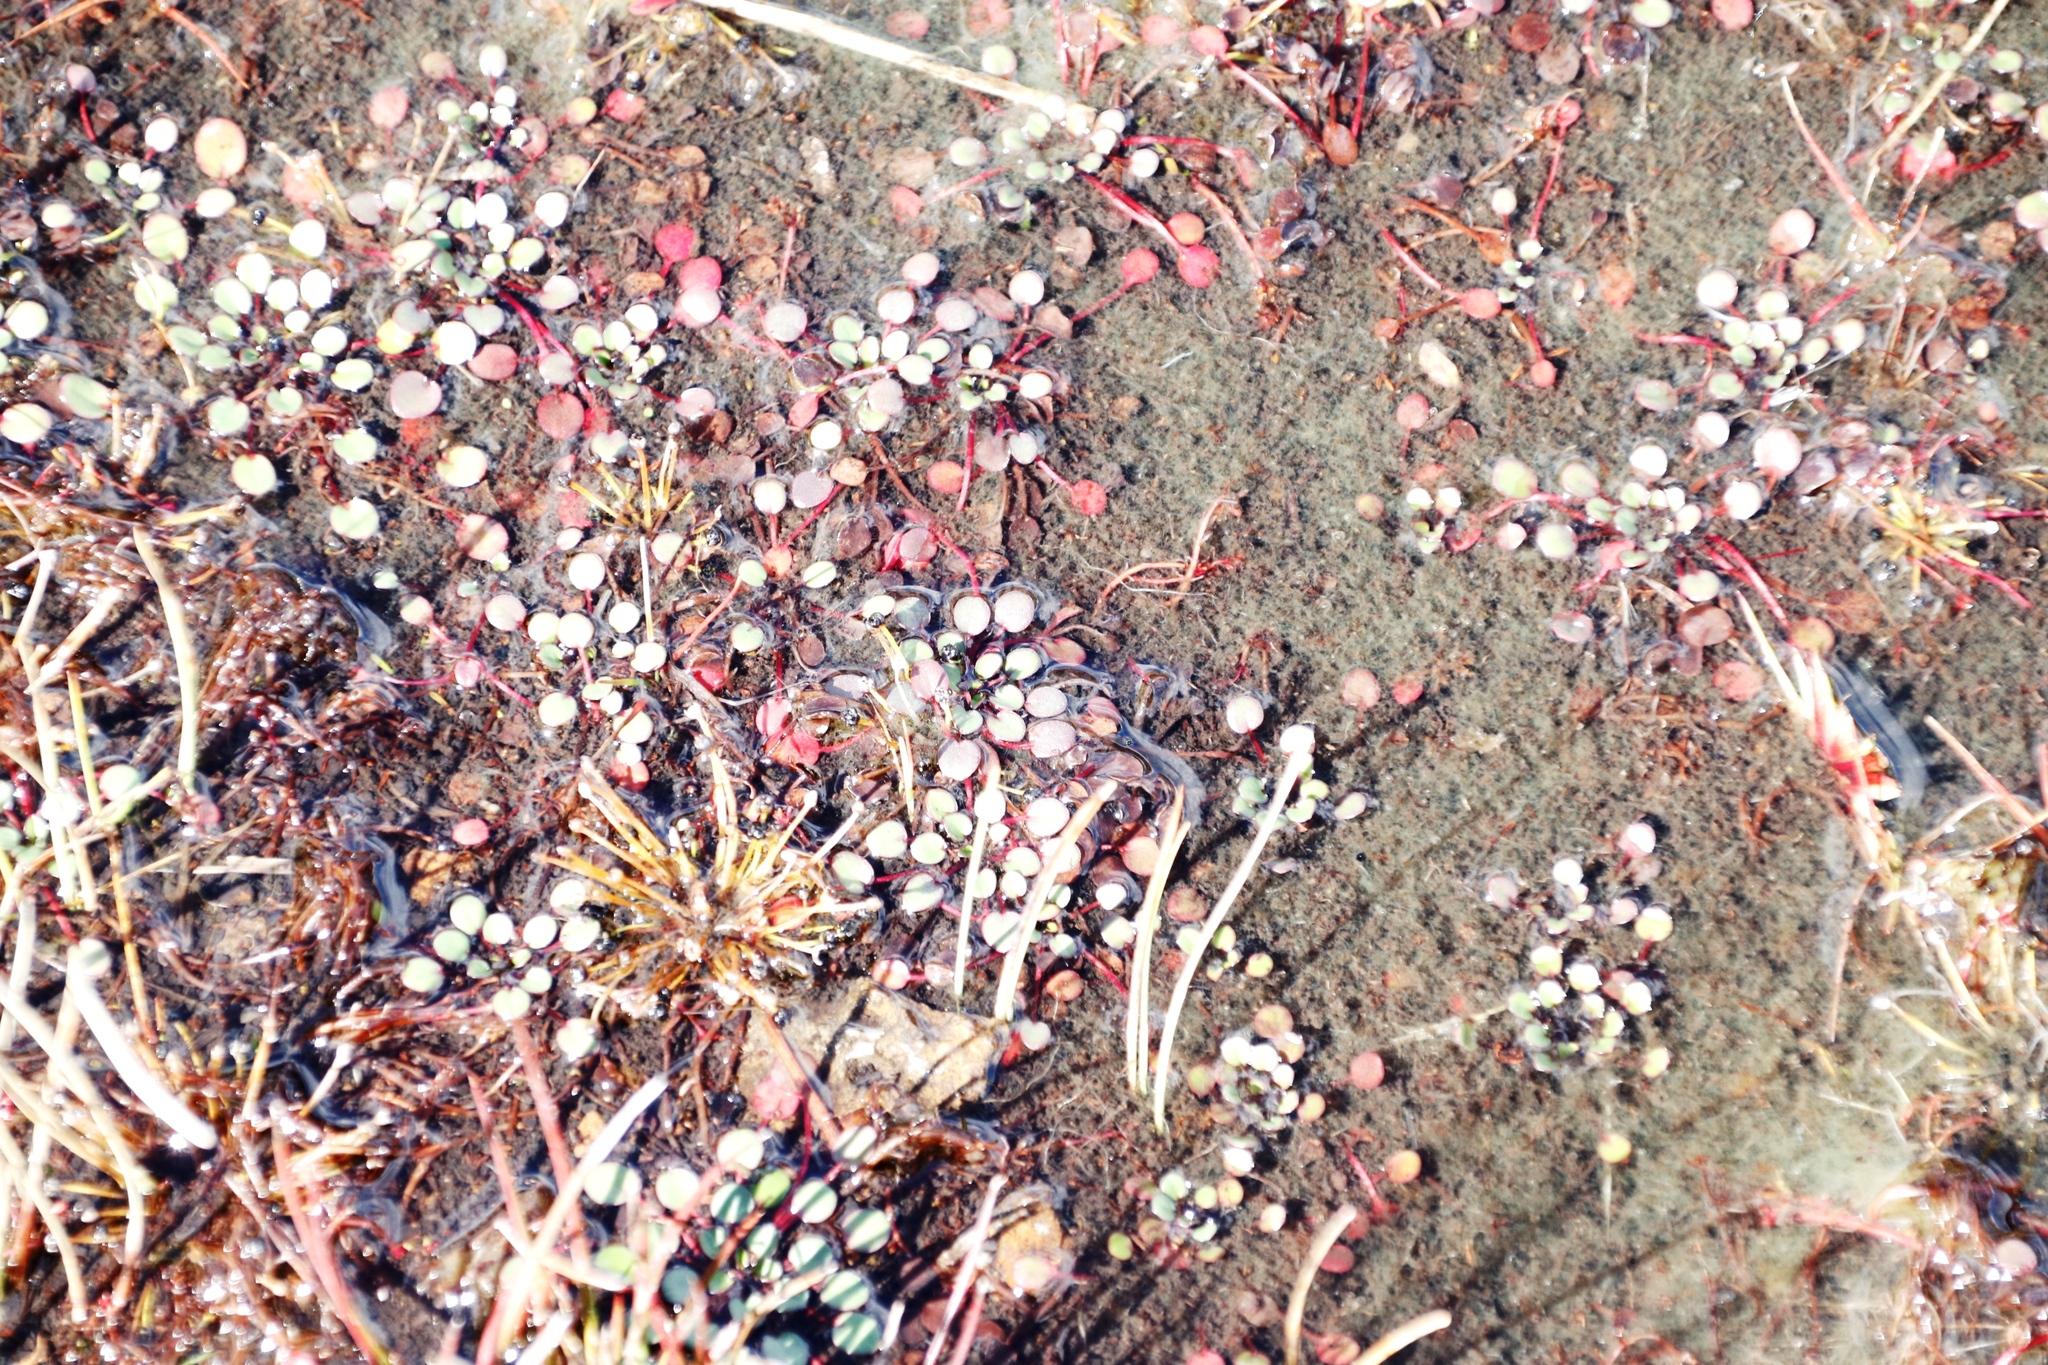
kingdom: Plantae
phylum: Tracheophyta
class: Magnoliopsida
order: Lamiales
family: Scrophulariaceae
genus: Limosella
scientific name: Limosella vesiculosa
